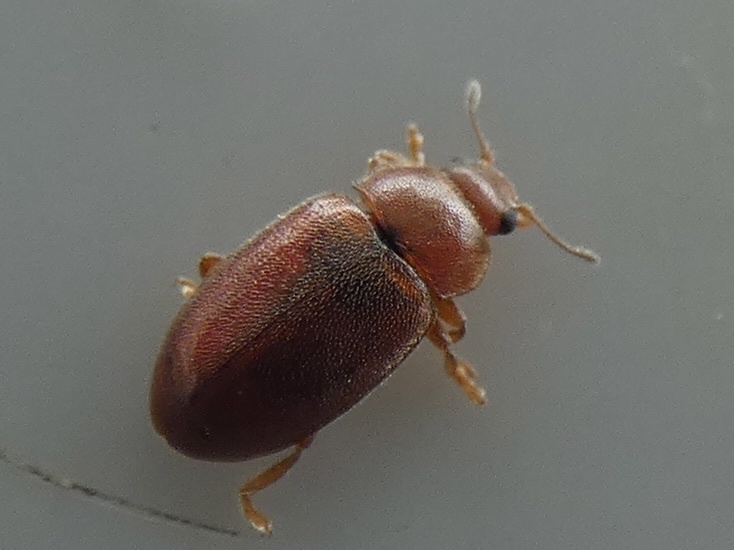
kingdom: Animalia
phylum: Arthropoda
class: Insecta
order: Coleoptera
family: Coccinellidae
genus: Coccidula
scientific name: Coccidula rufa
